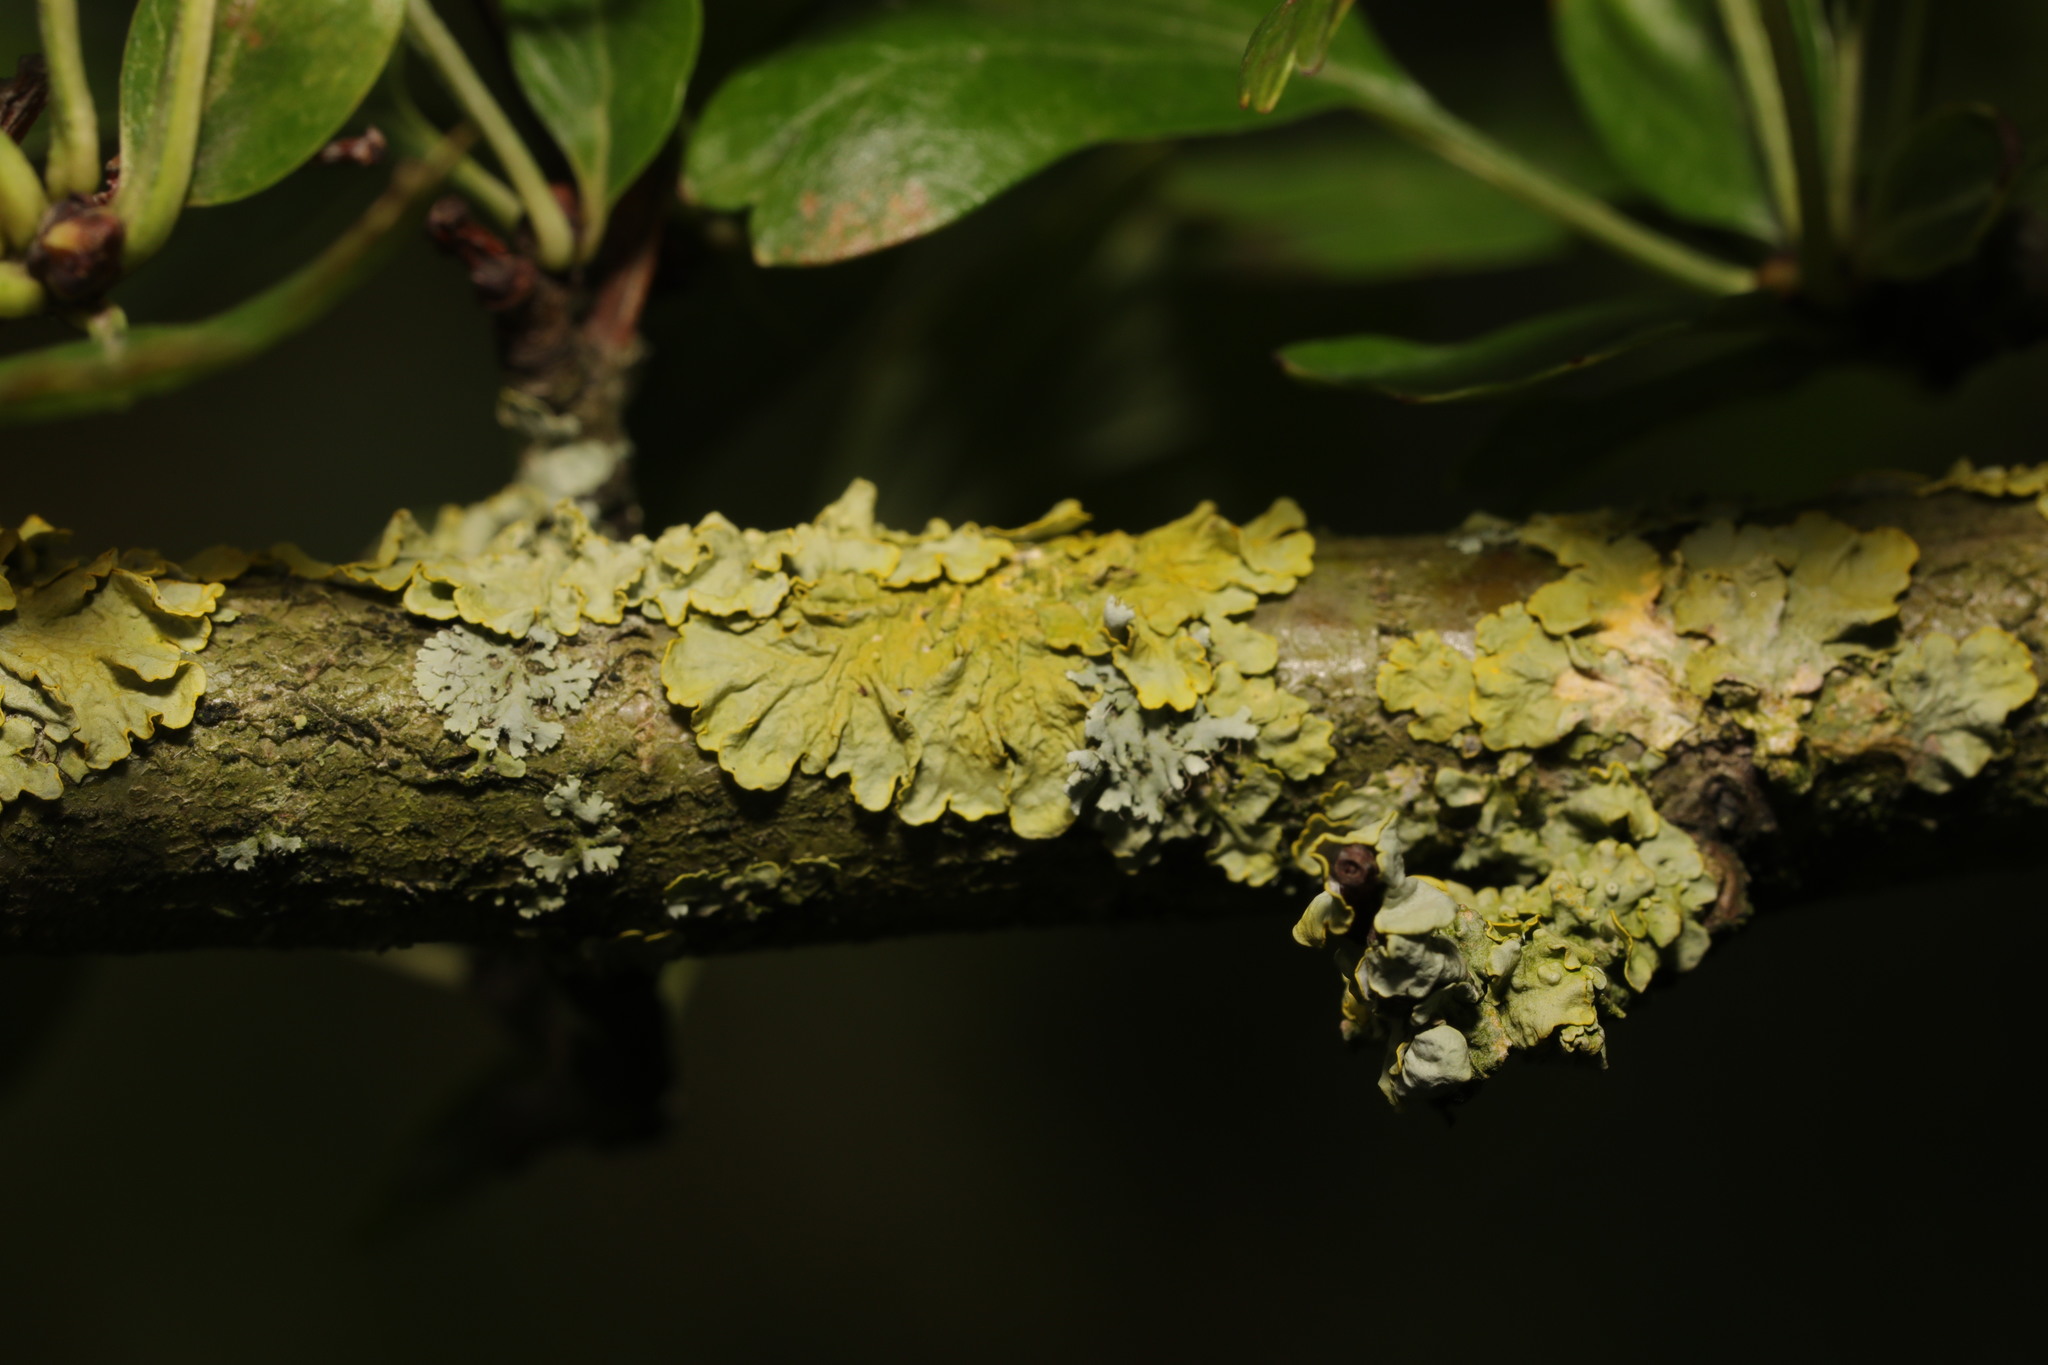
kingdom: Fungi
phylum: Ascomycota
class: Lecanoromycetes
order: Teloschistales
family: Teloschistaceae
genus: Xanthoria
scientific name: Xanthoria parietina
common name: Common orange lichen
